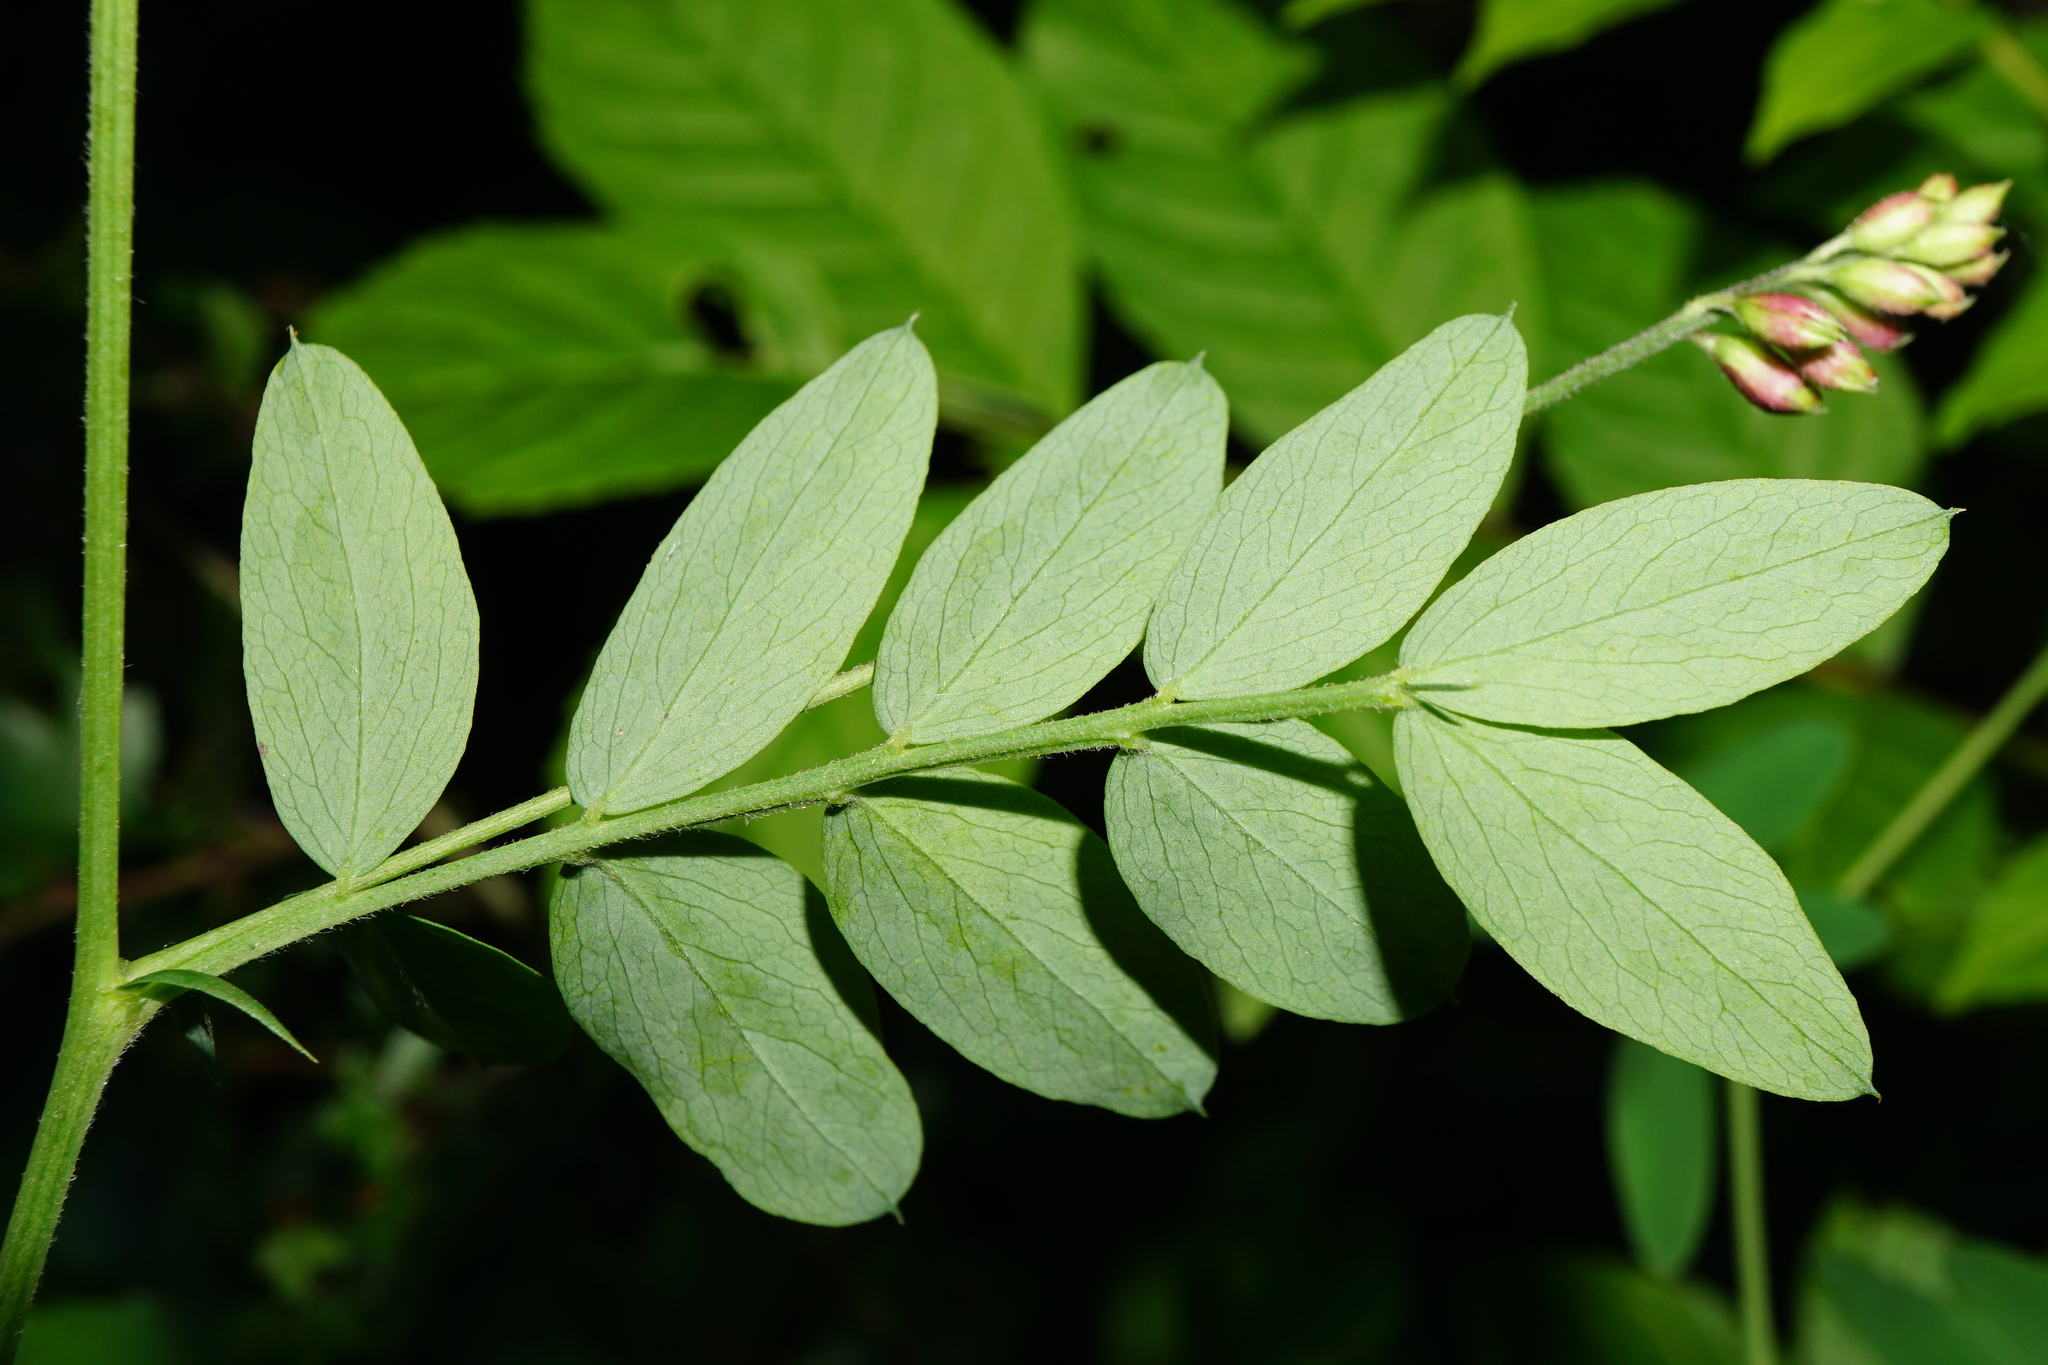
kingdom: Plantae
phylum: Tracheophyta
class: Magnoliopsida
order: Fabales
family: Fabaceae
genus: Lathyrus
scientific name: Lathyrus niger
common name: Black pea
